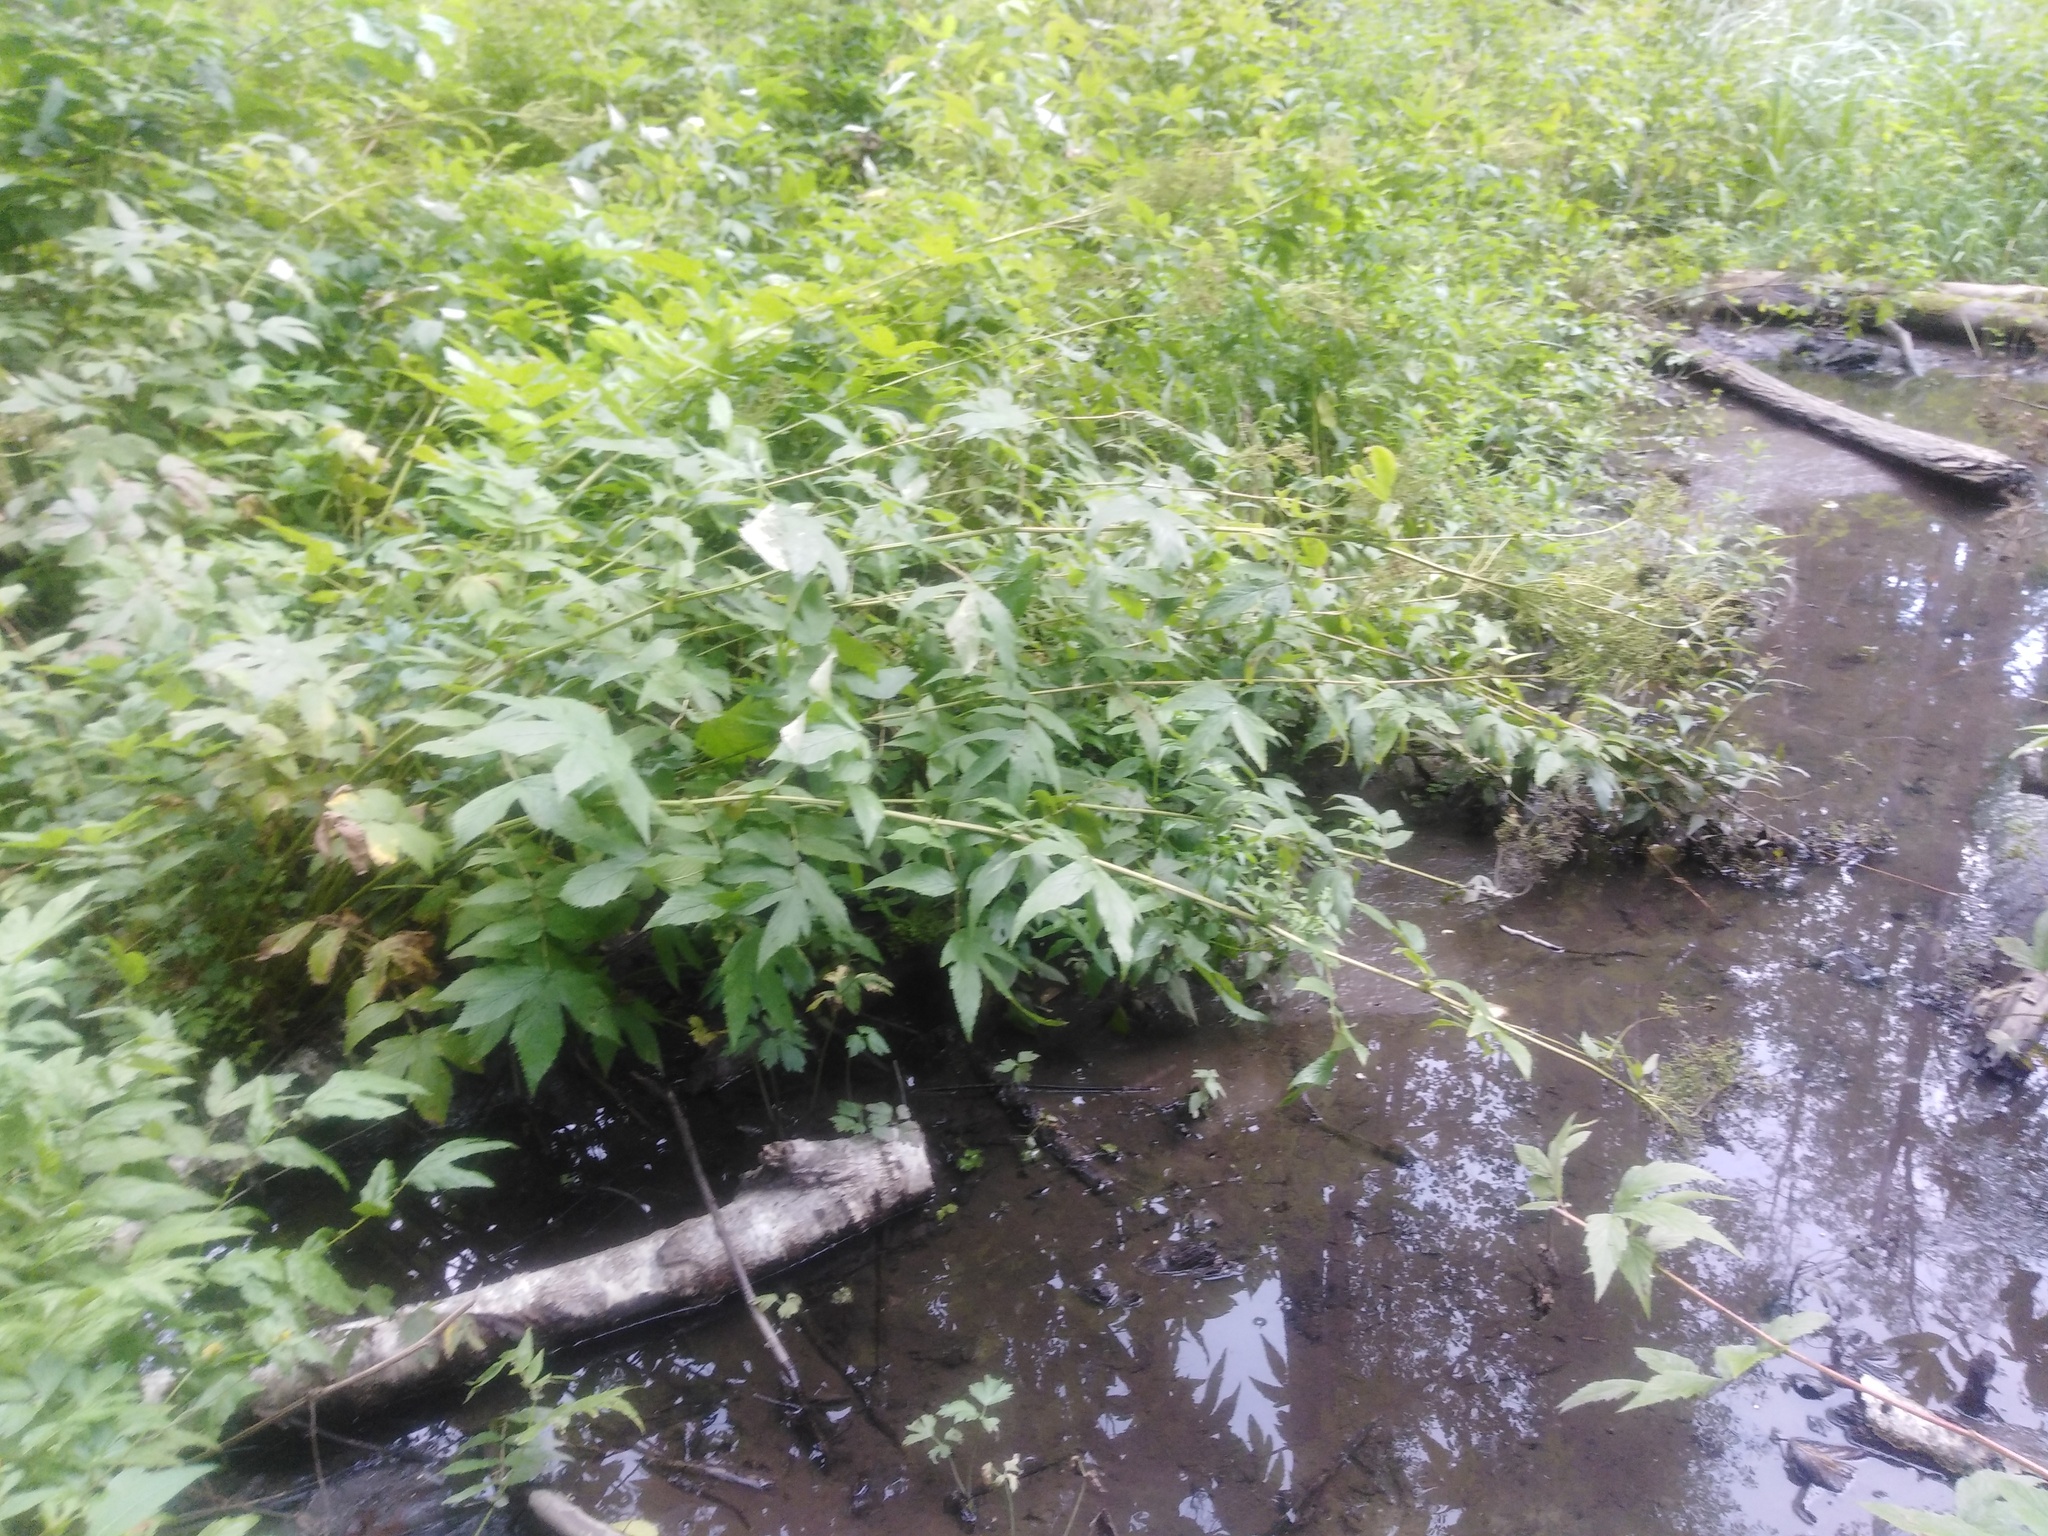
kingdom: Plantae
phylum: Tracheophyta
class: Magnoliopsida
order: Rosales
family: Rosaceae
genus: Filipendula
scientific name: Filipendula ulmaria
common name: Meadowsweet
